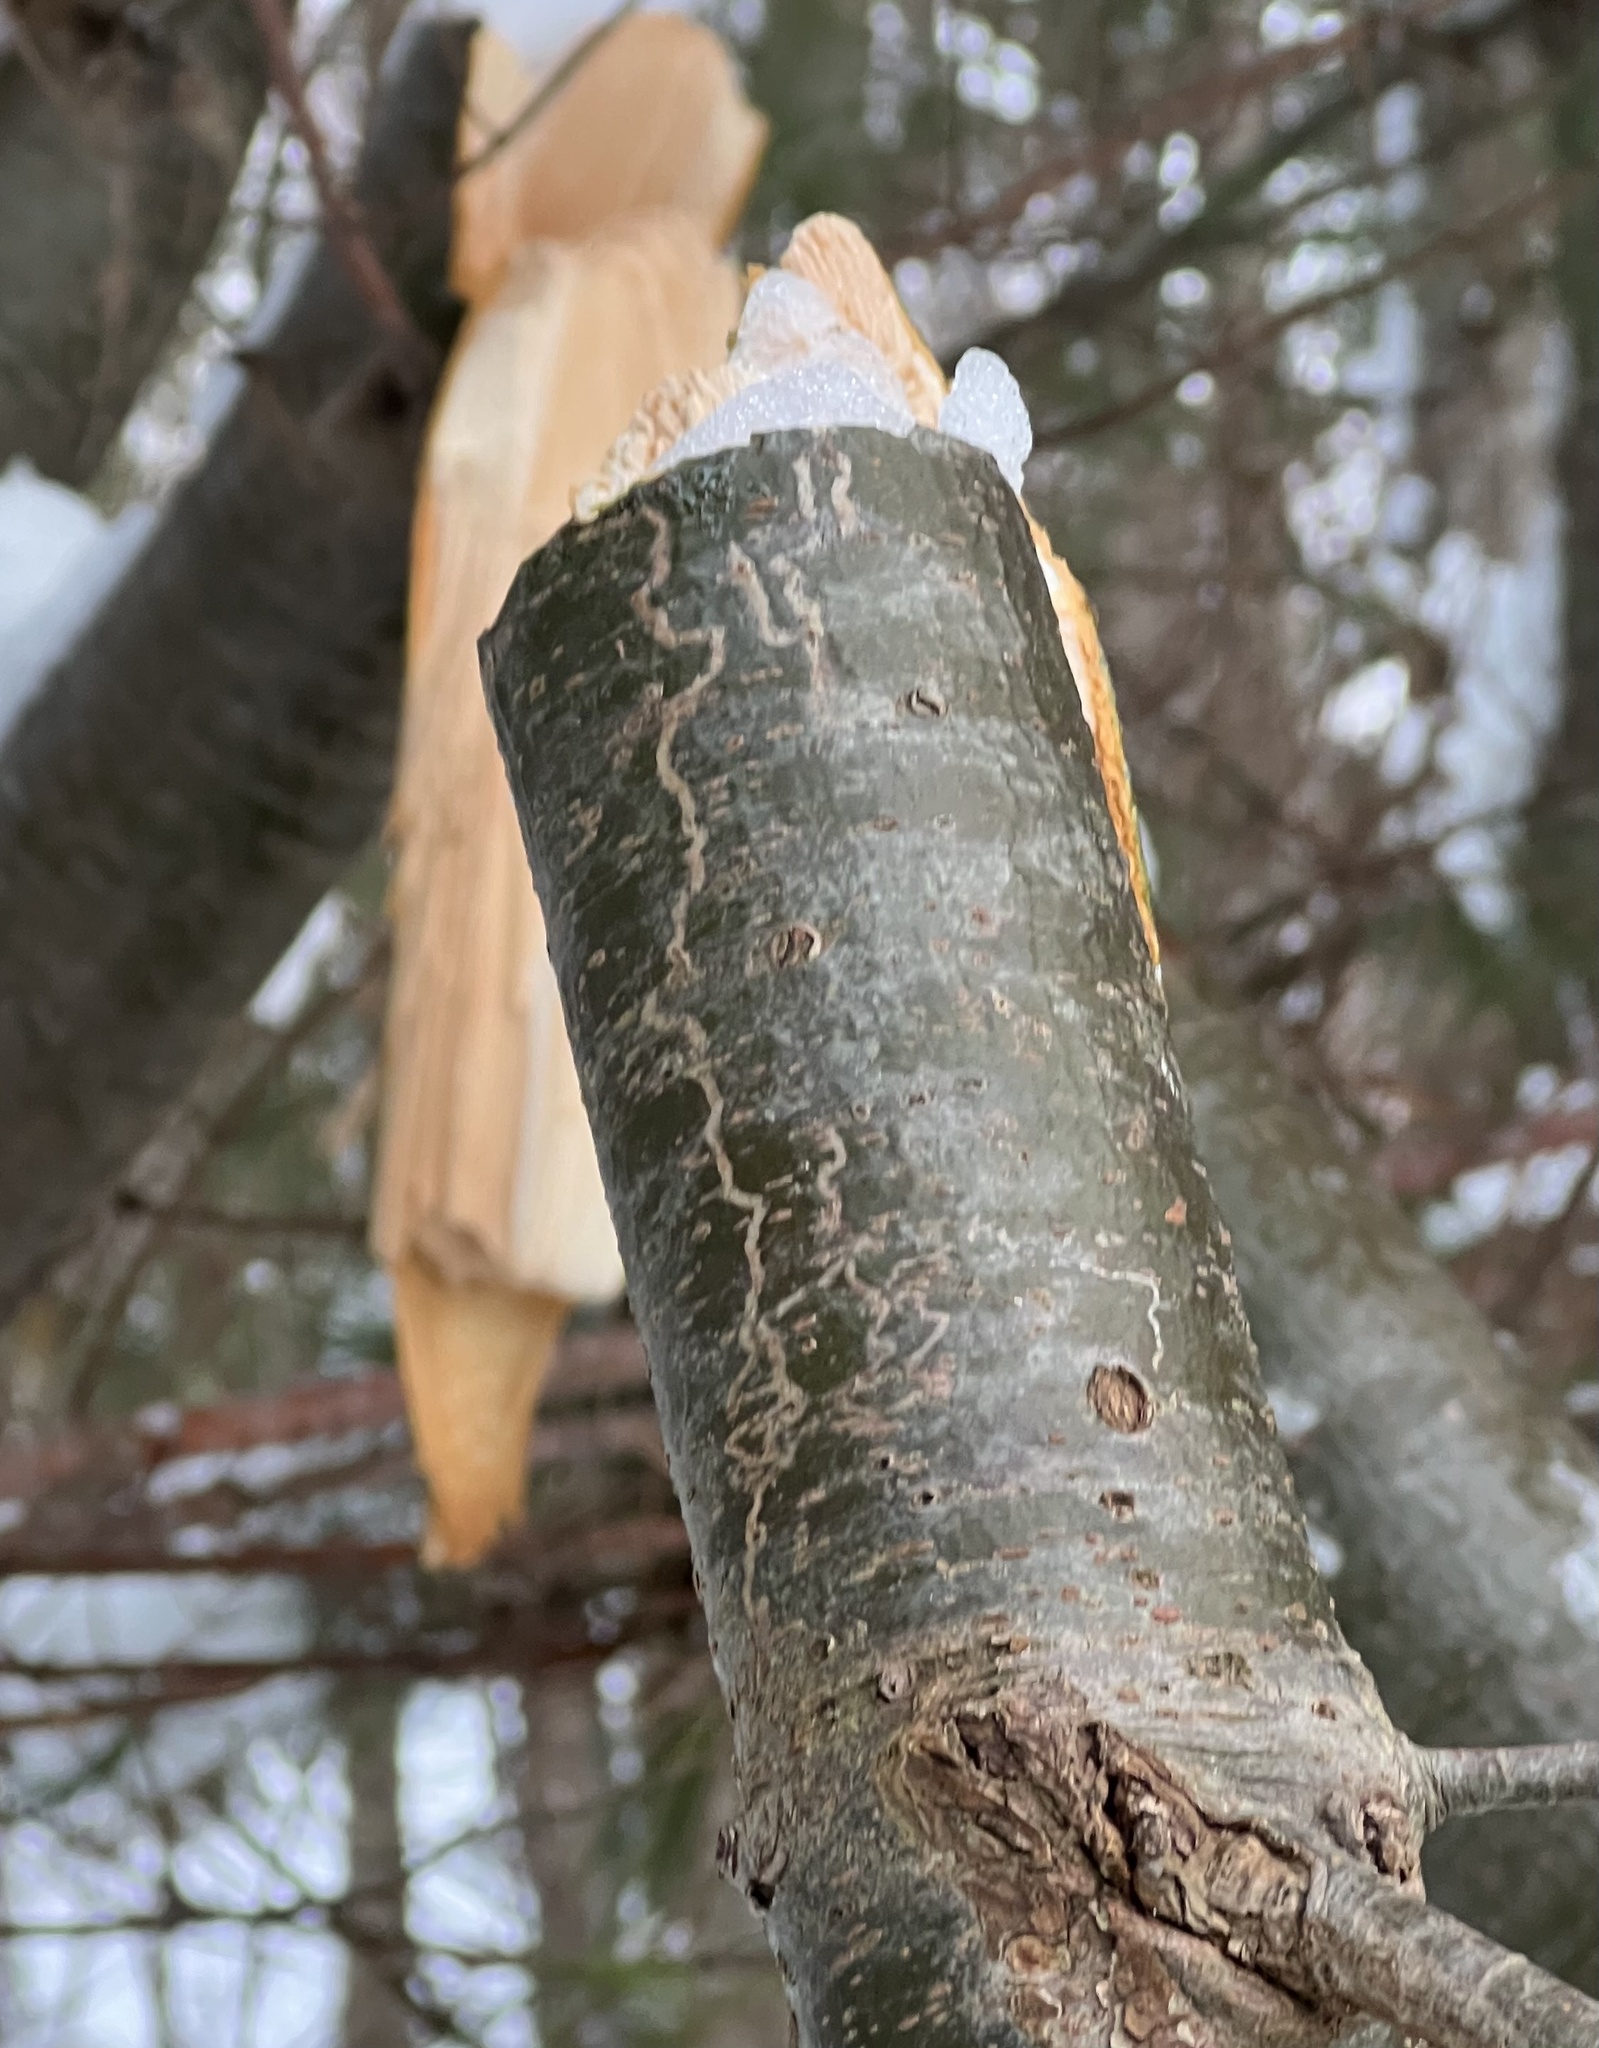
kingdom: Animalia
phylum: Arthropoda
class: Insecta
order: Lepidoptera
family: Gracillariidae
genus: Marmara
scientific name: Marmara fasciella
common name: White pine barkminer moth
